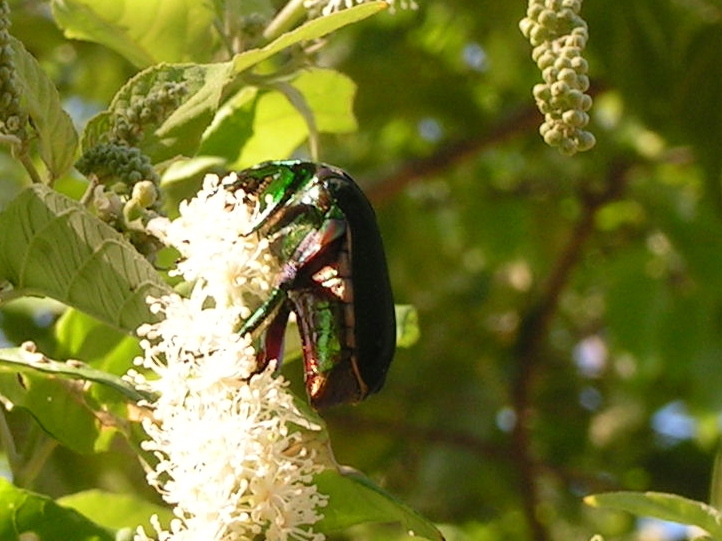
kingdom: Animalia
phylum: Arthropoda
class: Insecta
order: Coleoptera
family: Scarabaeidae
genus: Cotinis
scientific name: Cotinis
